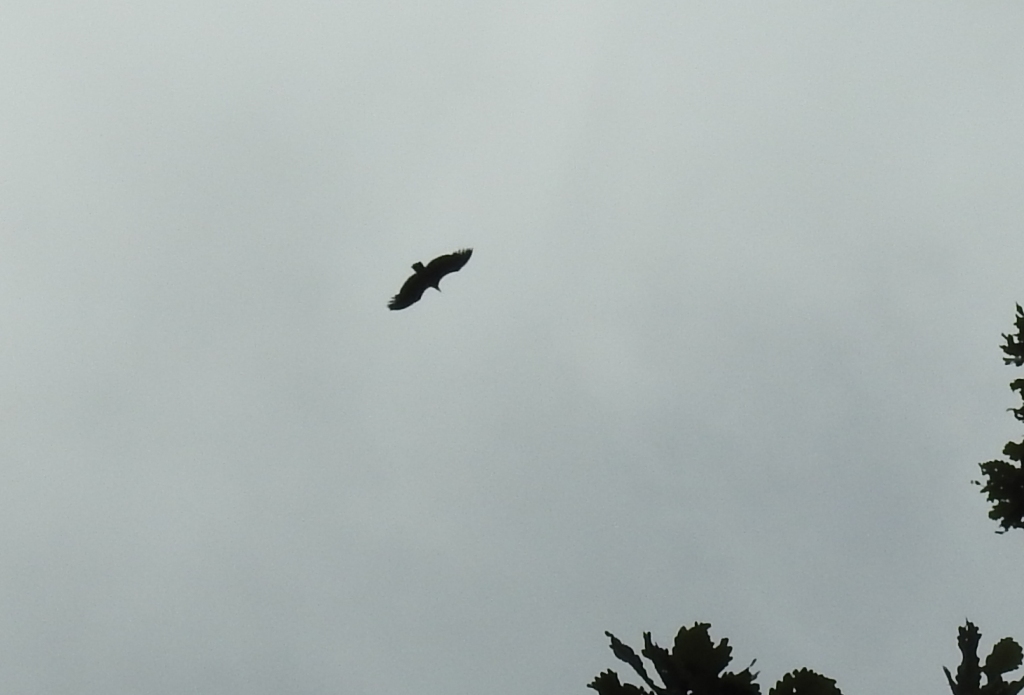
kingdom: Animalia
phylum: Chordata
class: Aves
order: Accipitriformes
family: Accipitridae
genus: Gyps
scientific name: Gyps fulvus
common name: Griffon vulture
